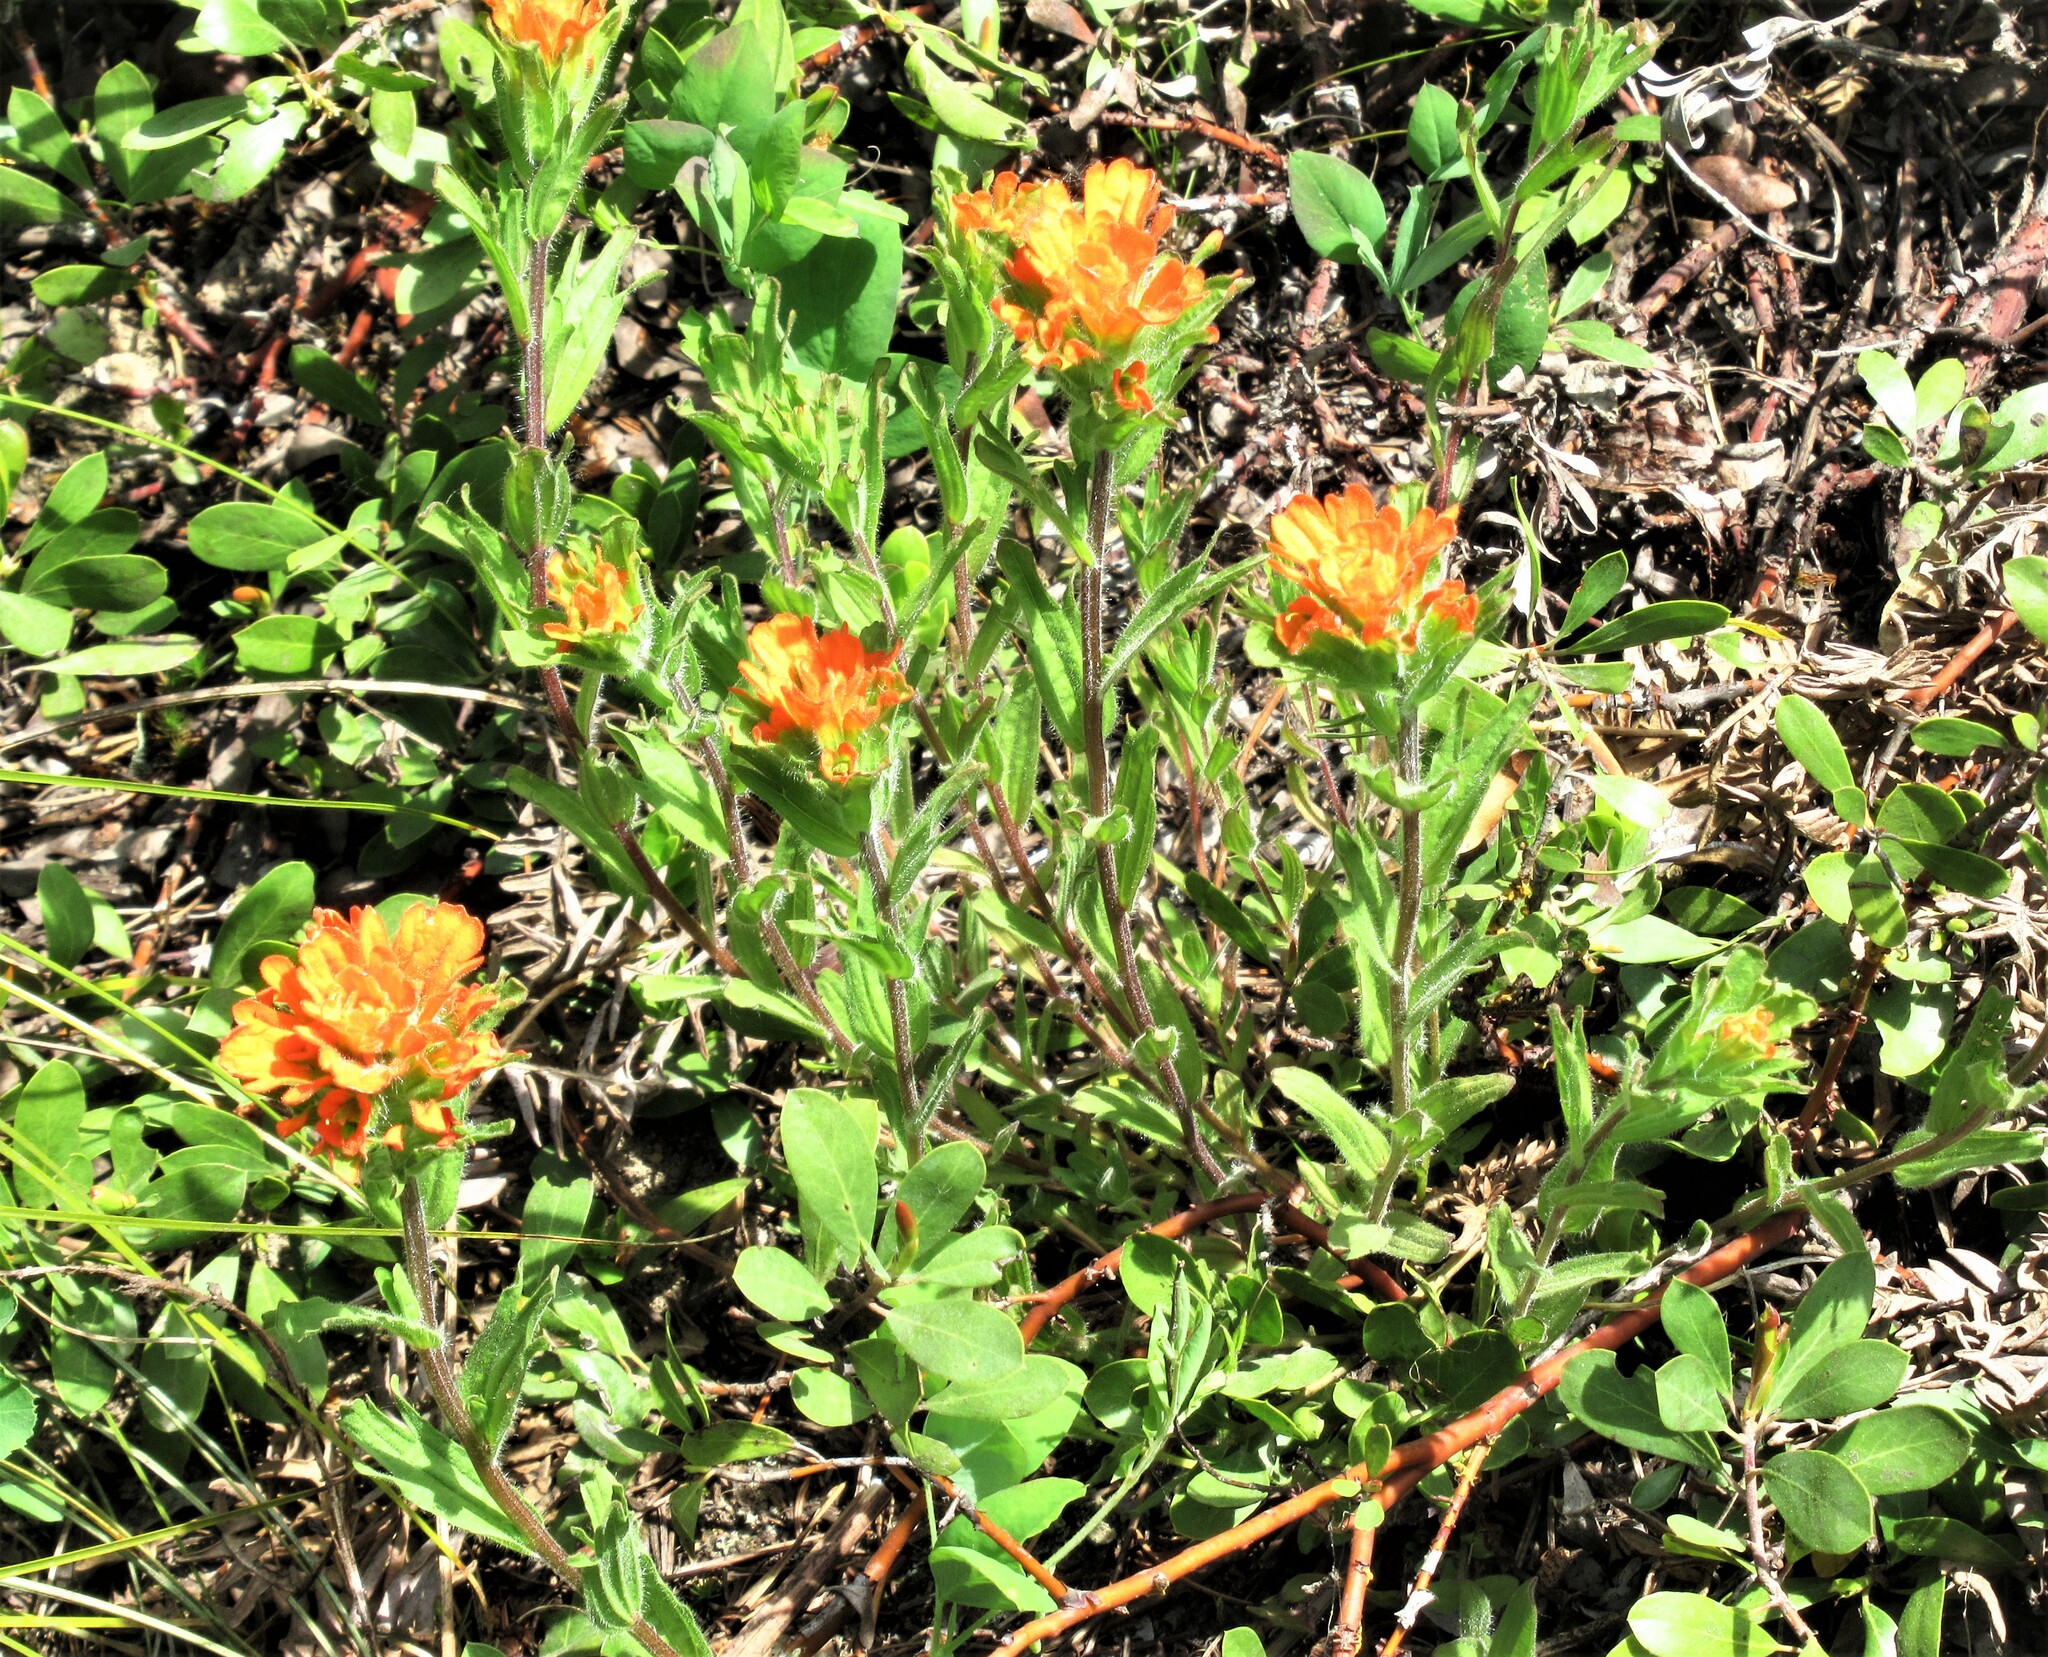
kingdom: Plantae
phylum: Tracheophyta
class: Magnoliopsida
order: Lamiales
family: Orobanchaceae
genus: Castilleja
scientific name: Castilleja hispida
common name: Bristly paintbrush
